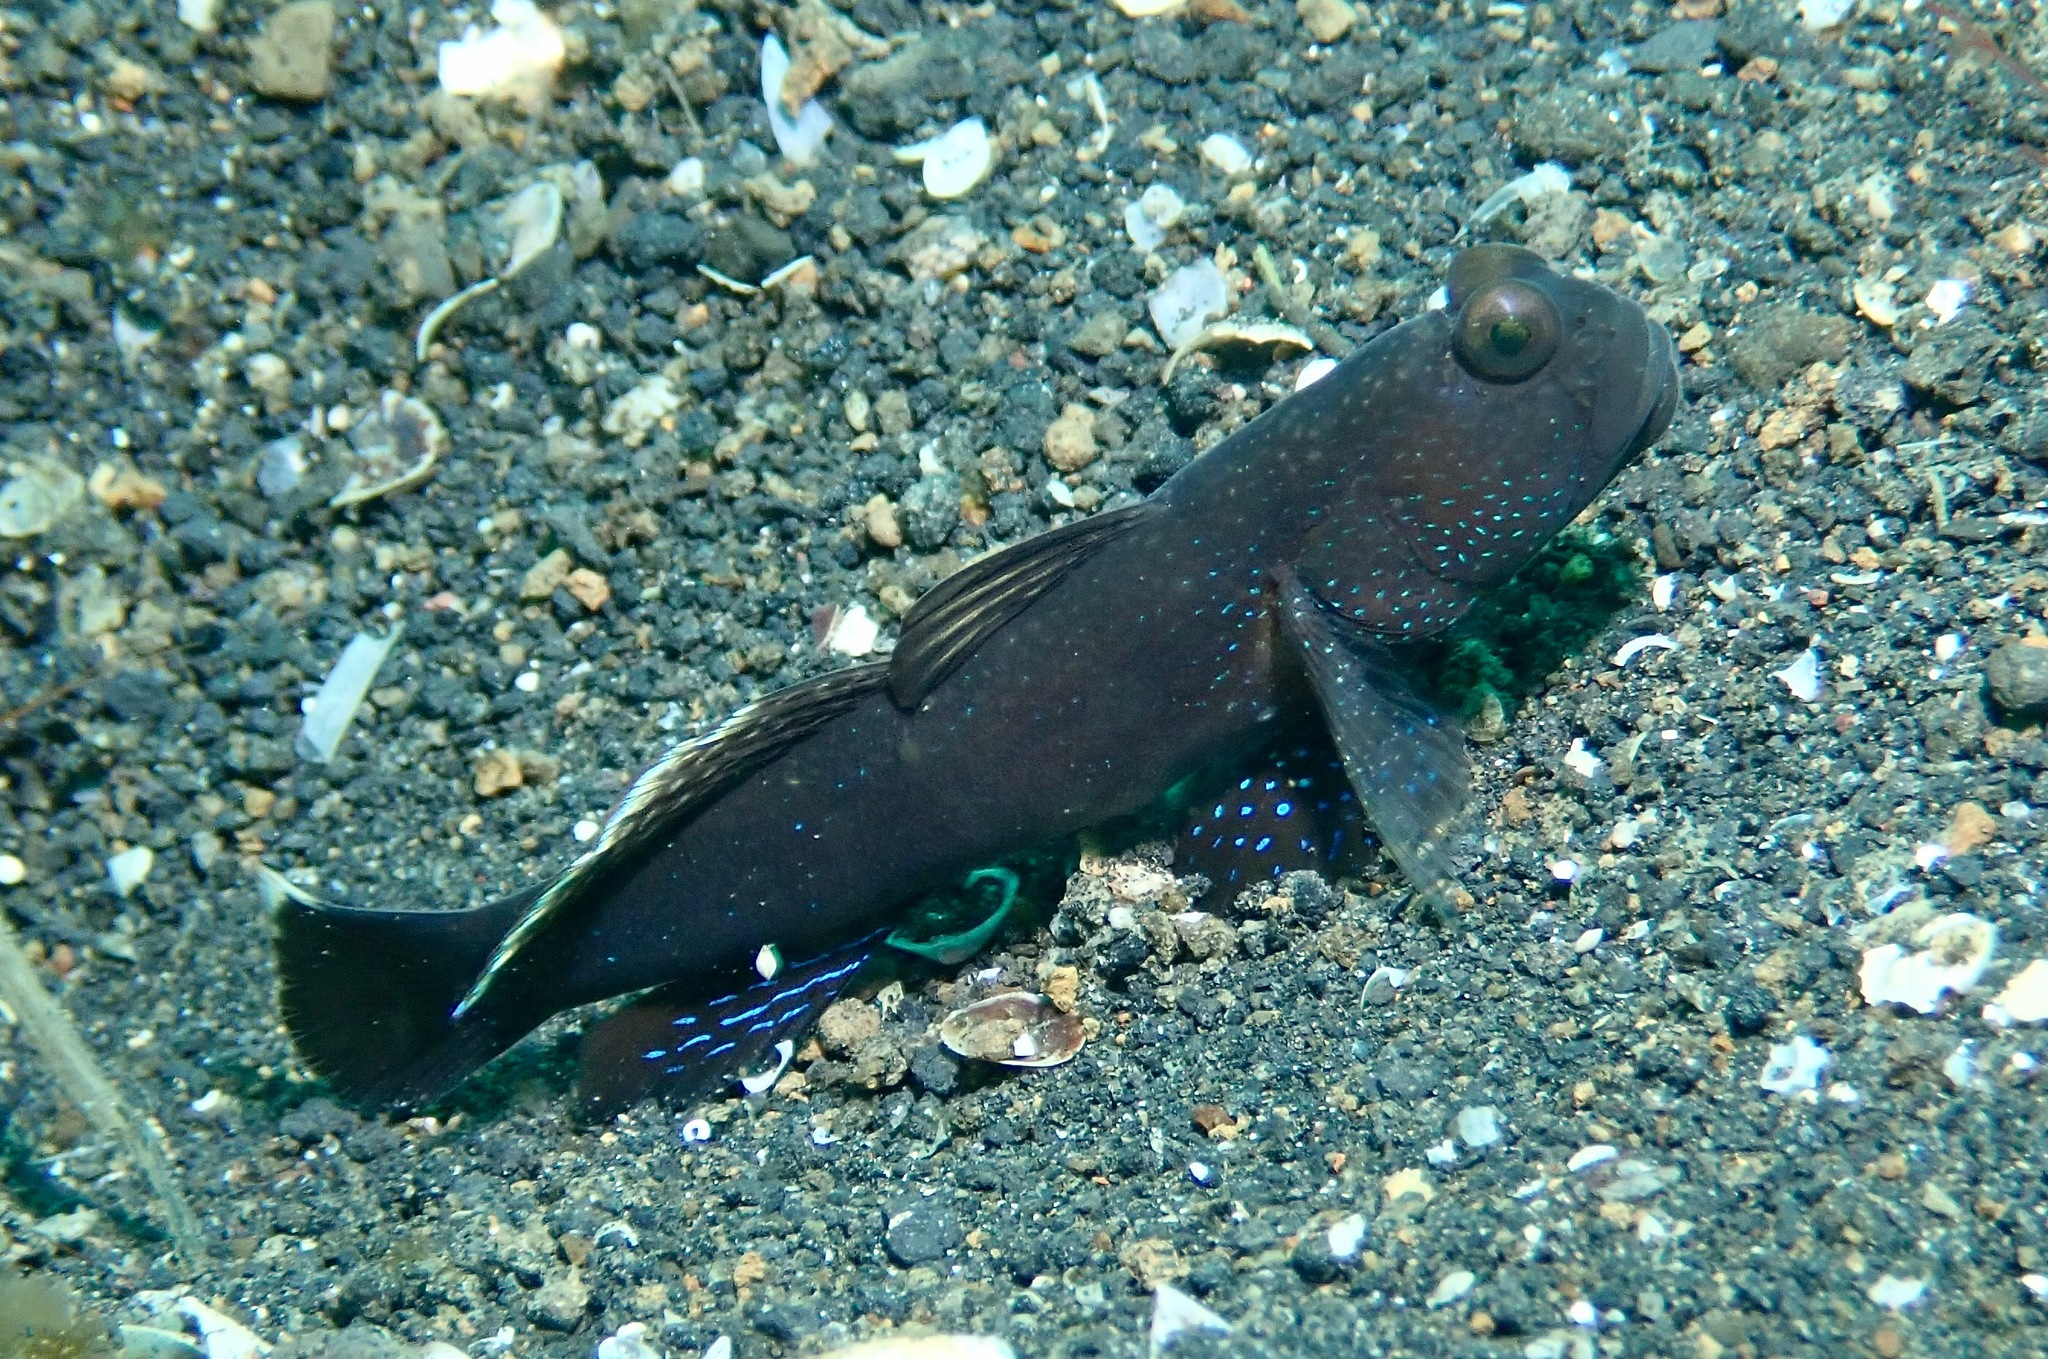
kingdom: Animalia
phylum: Chordata
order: Perciformes
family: Gobiidae
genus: Cryptocentrus
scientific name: Cryptocentrus fasciatus
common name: Barred prawn-goby
